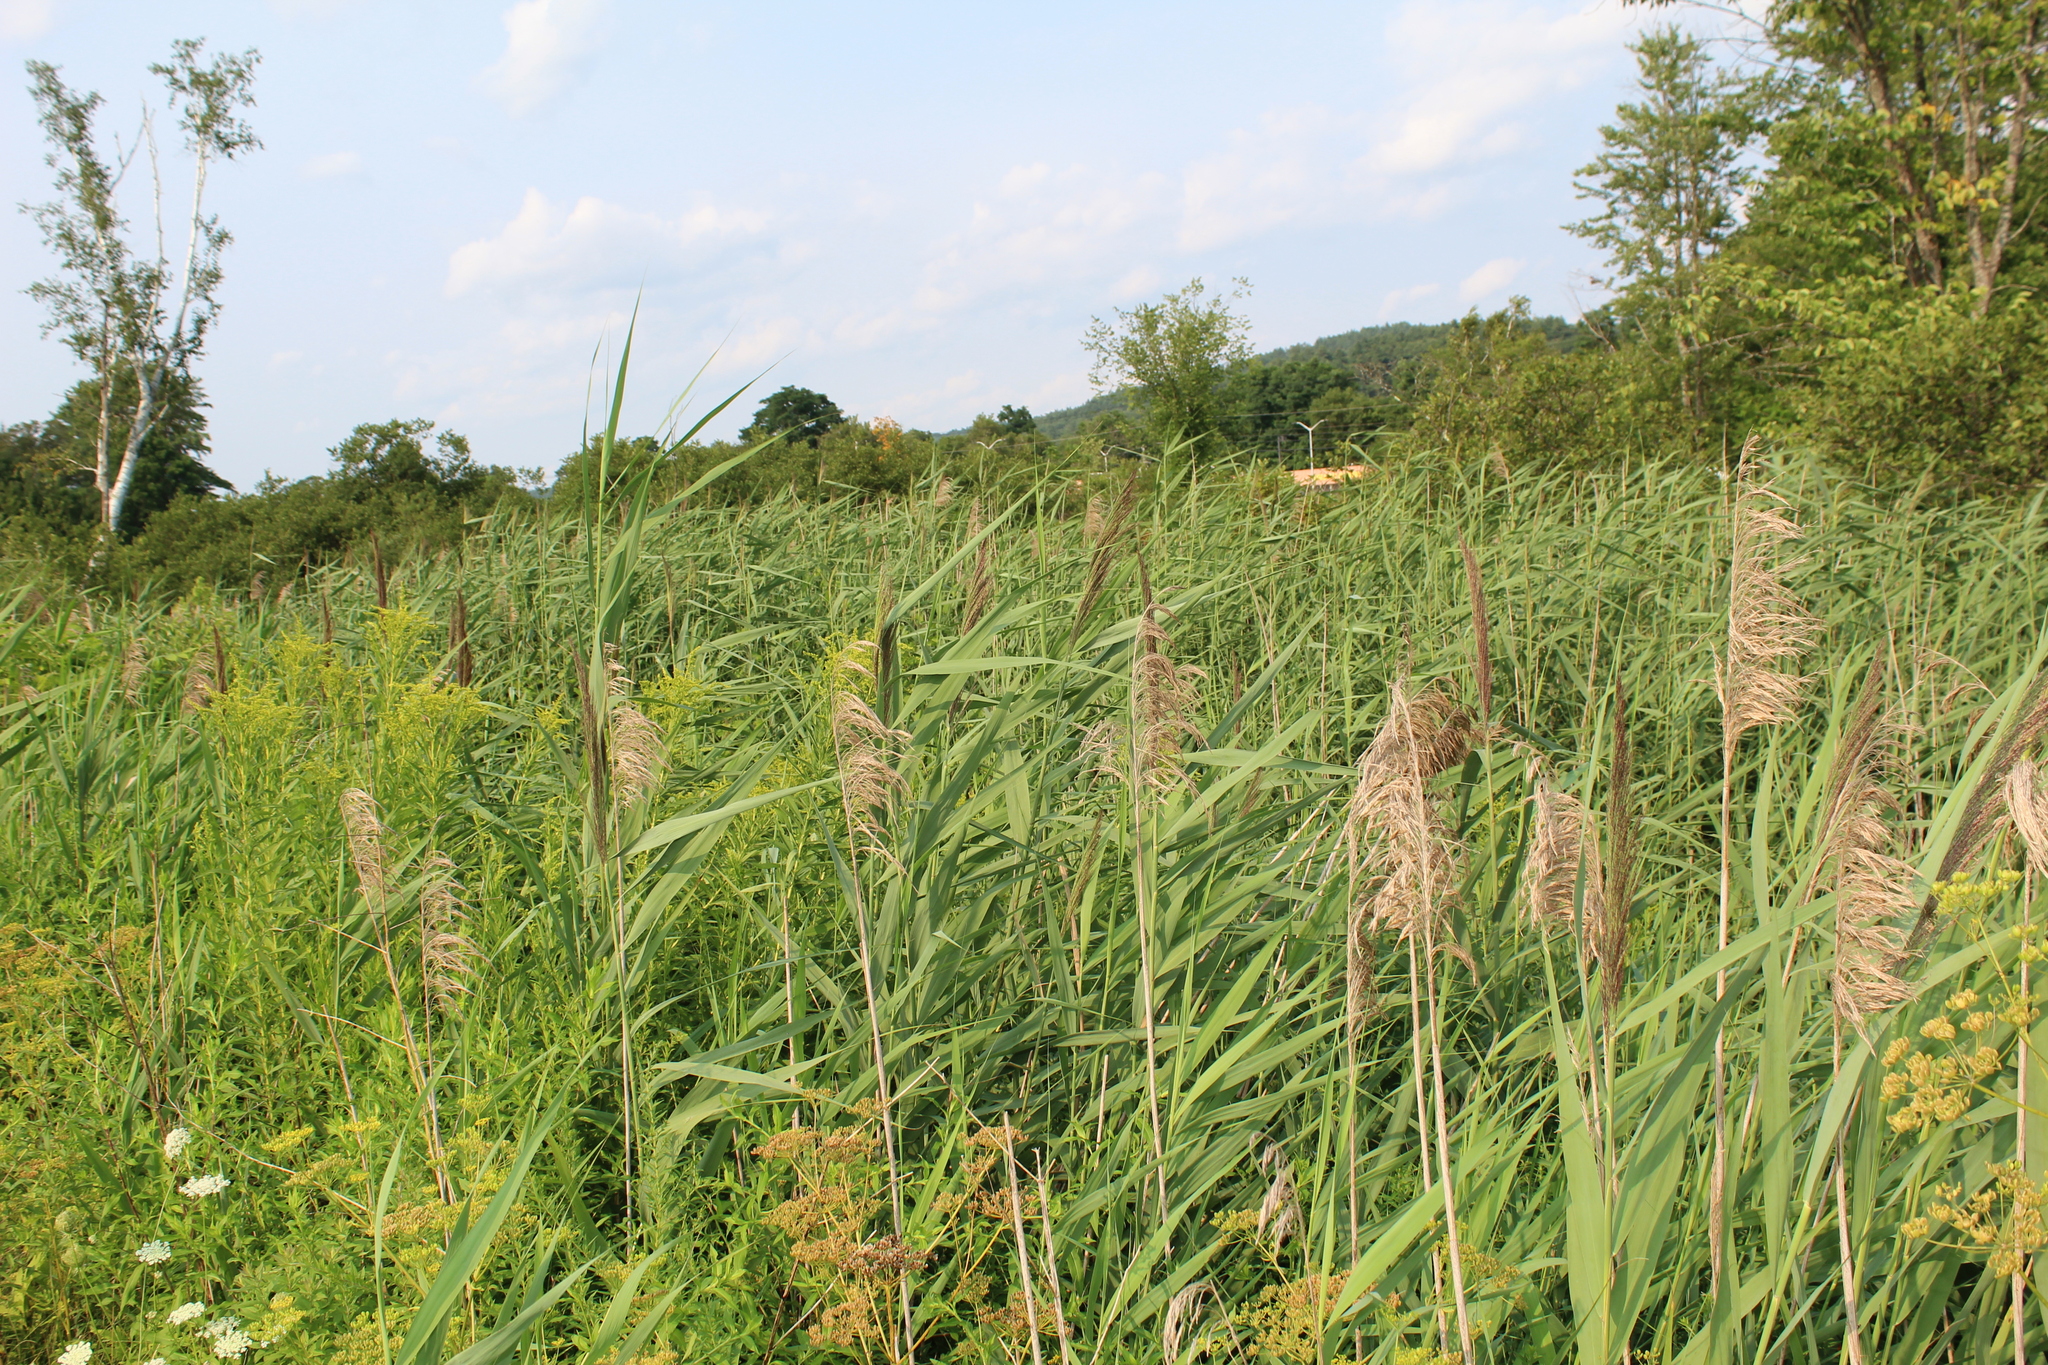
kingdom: Plantae
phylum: Tracheophyta
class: Liliopsida
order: Poales
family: Poaceae
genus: Phragmites
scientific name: Phragmites australis
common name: Common reed
